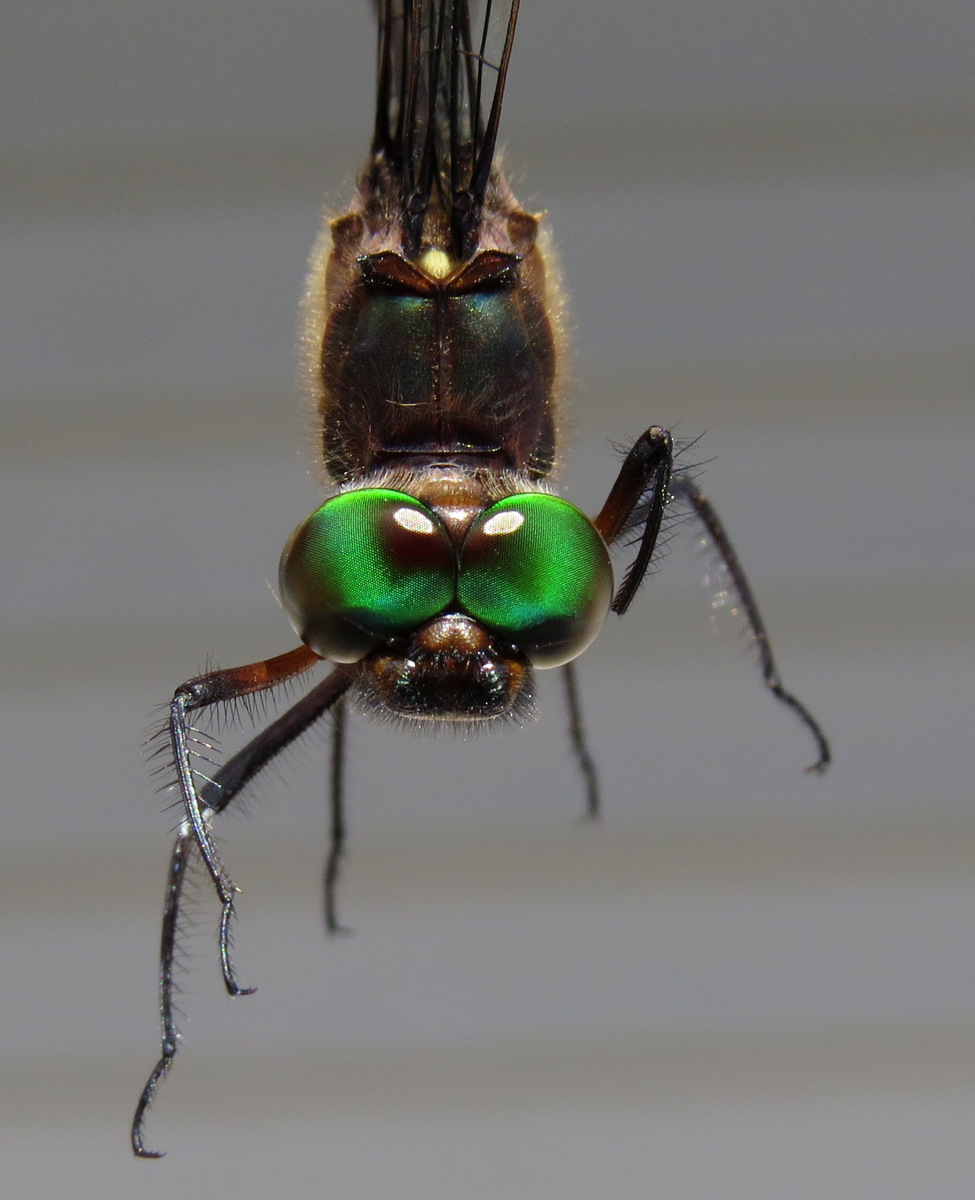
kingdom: Animalia
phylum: Arthropoda
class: Insecta
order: Odonata
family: Corduliidae
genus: Somatochlora
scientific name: Somatochlora linearis
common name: Mocha emerald
